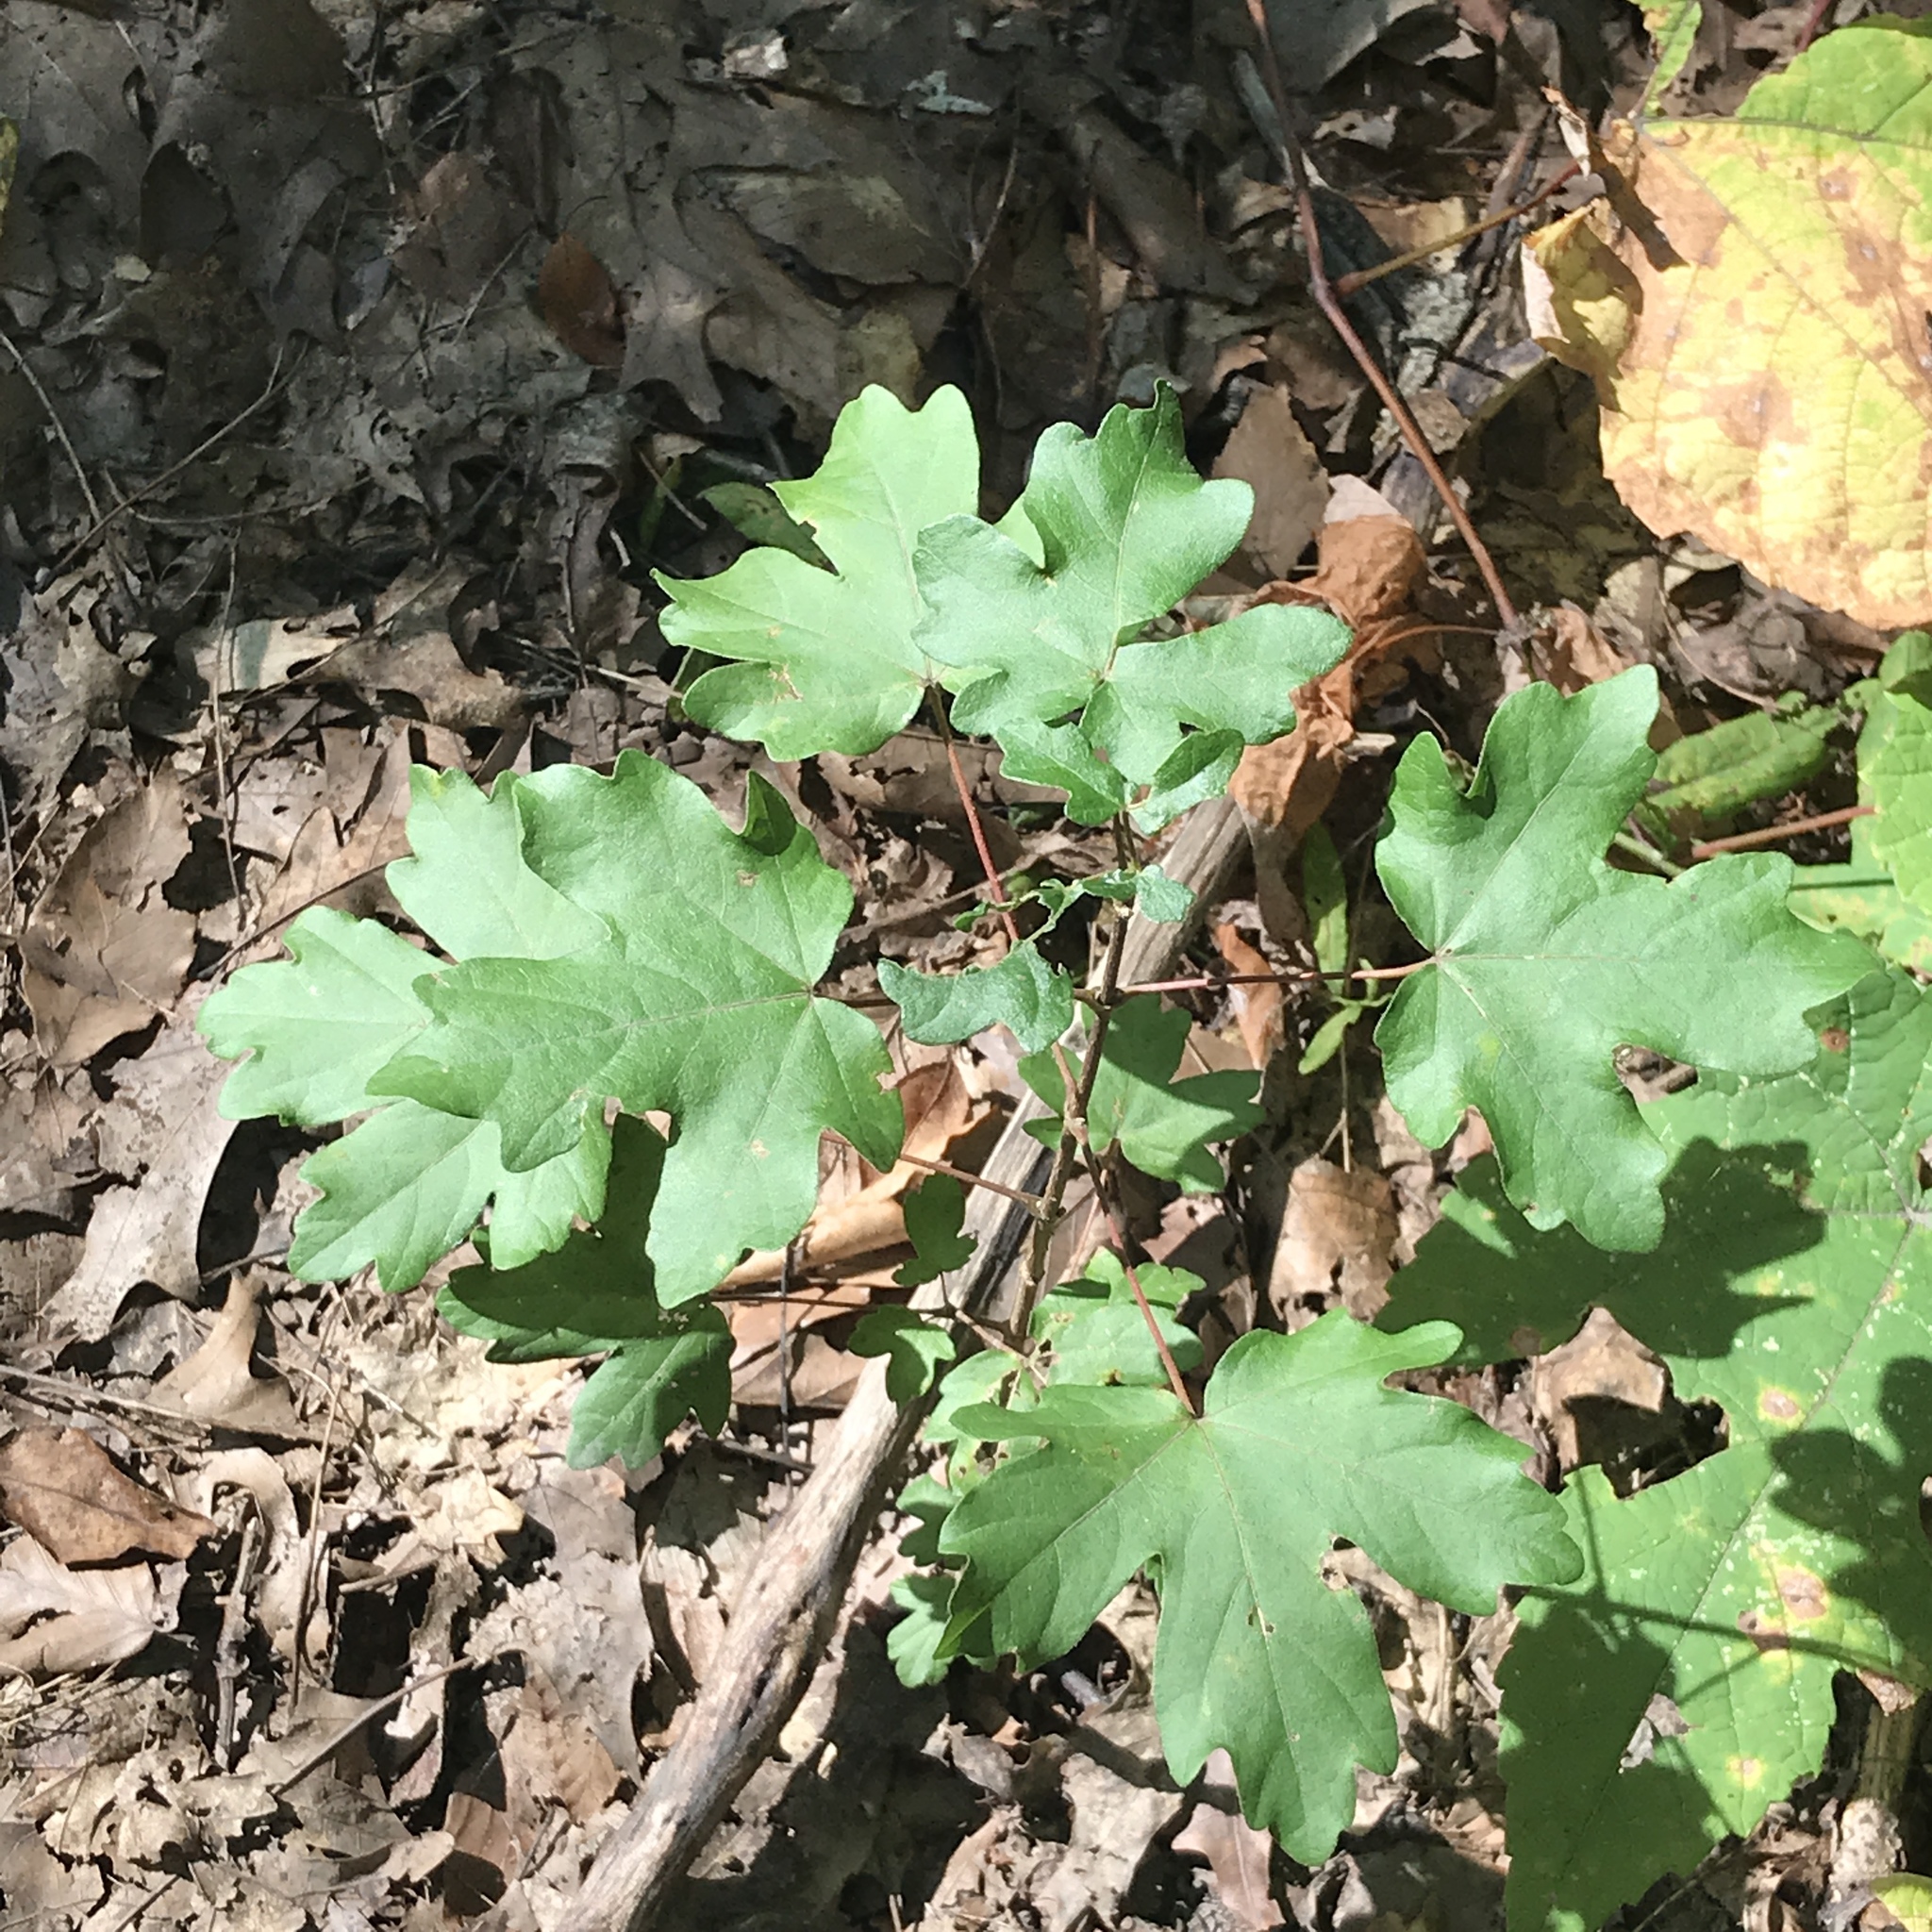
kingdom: Plantae
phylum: Tracheophyta
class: Magnoliopsida
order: Sapindales
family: Sapindaceae
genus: Acer
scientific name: Acer campestre
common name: Field maple
